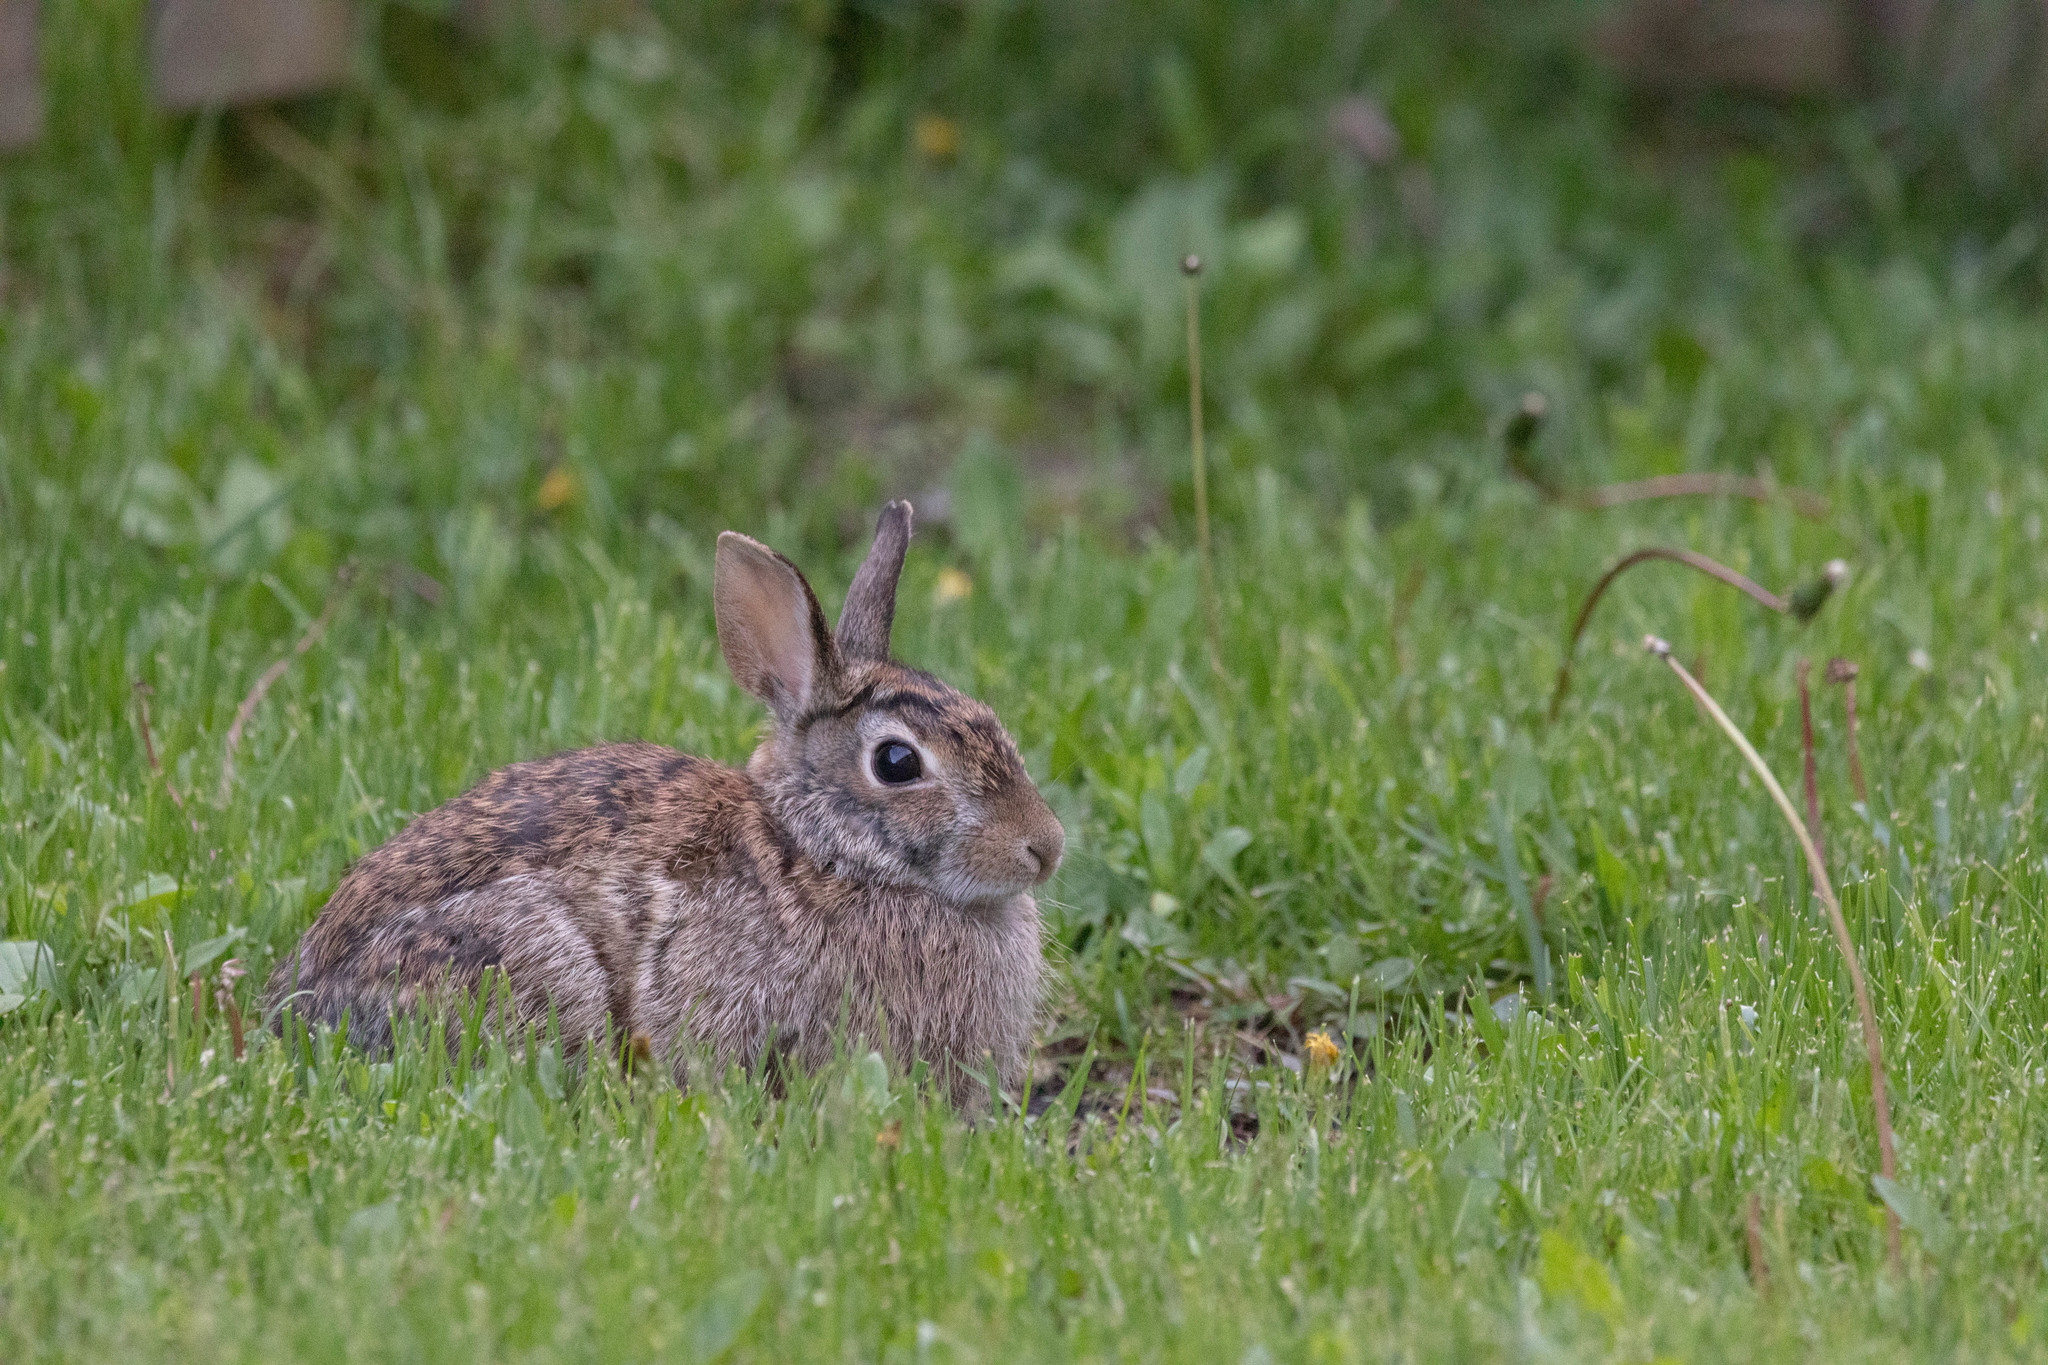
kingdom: Animalia
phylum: Chordata
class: Mammalia
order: Lagomorpha
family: Leporidae
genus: Sylvilagus
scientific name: Sylvilagus floridanus
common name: Eastern cottontail
